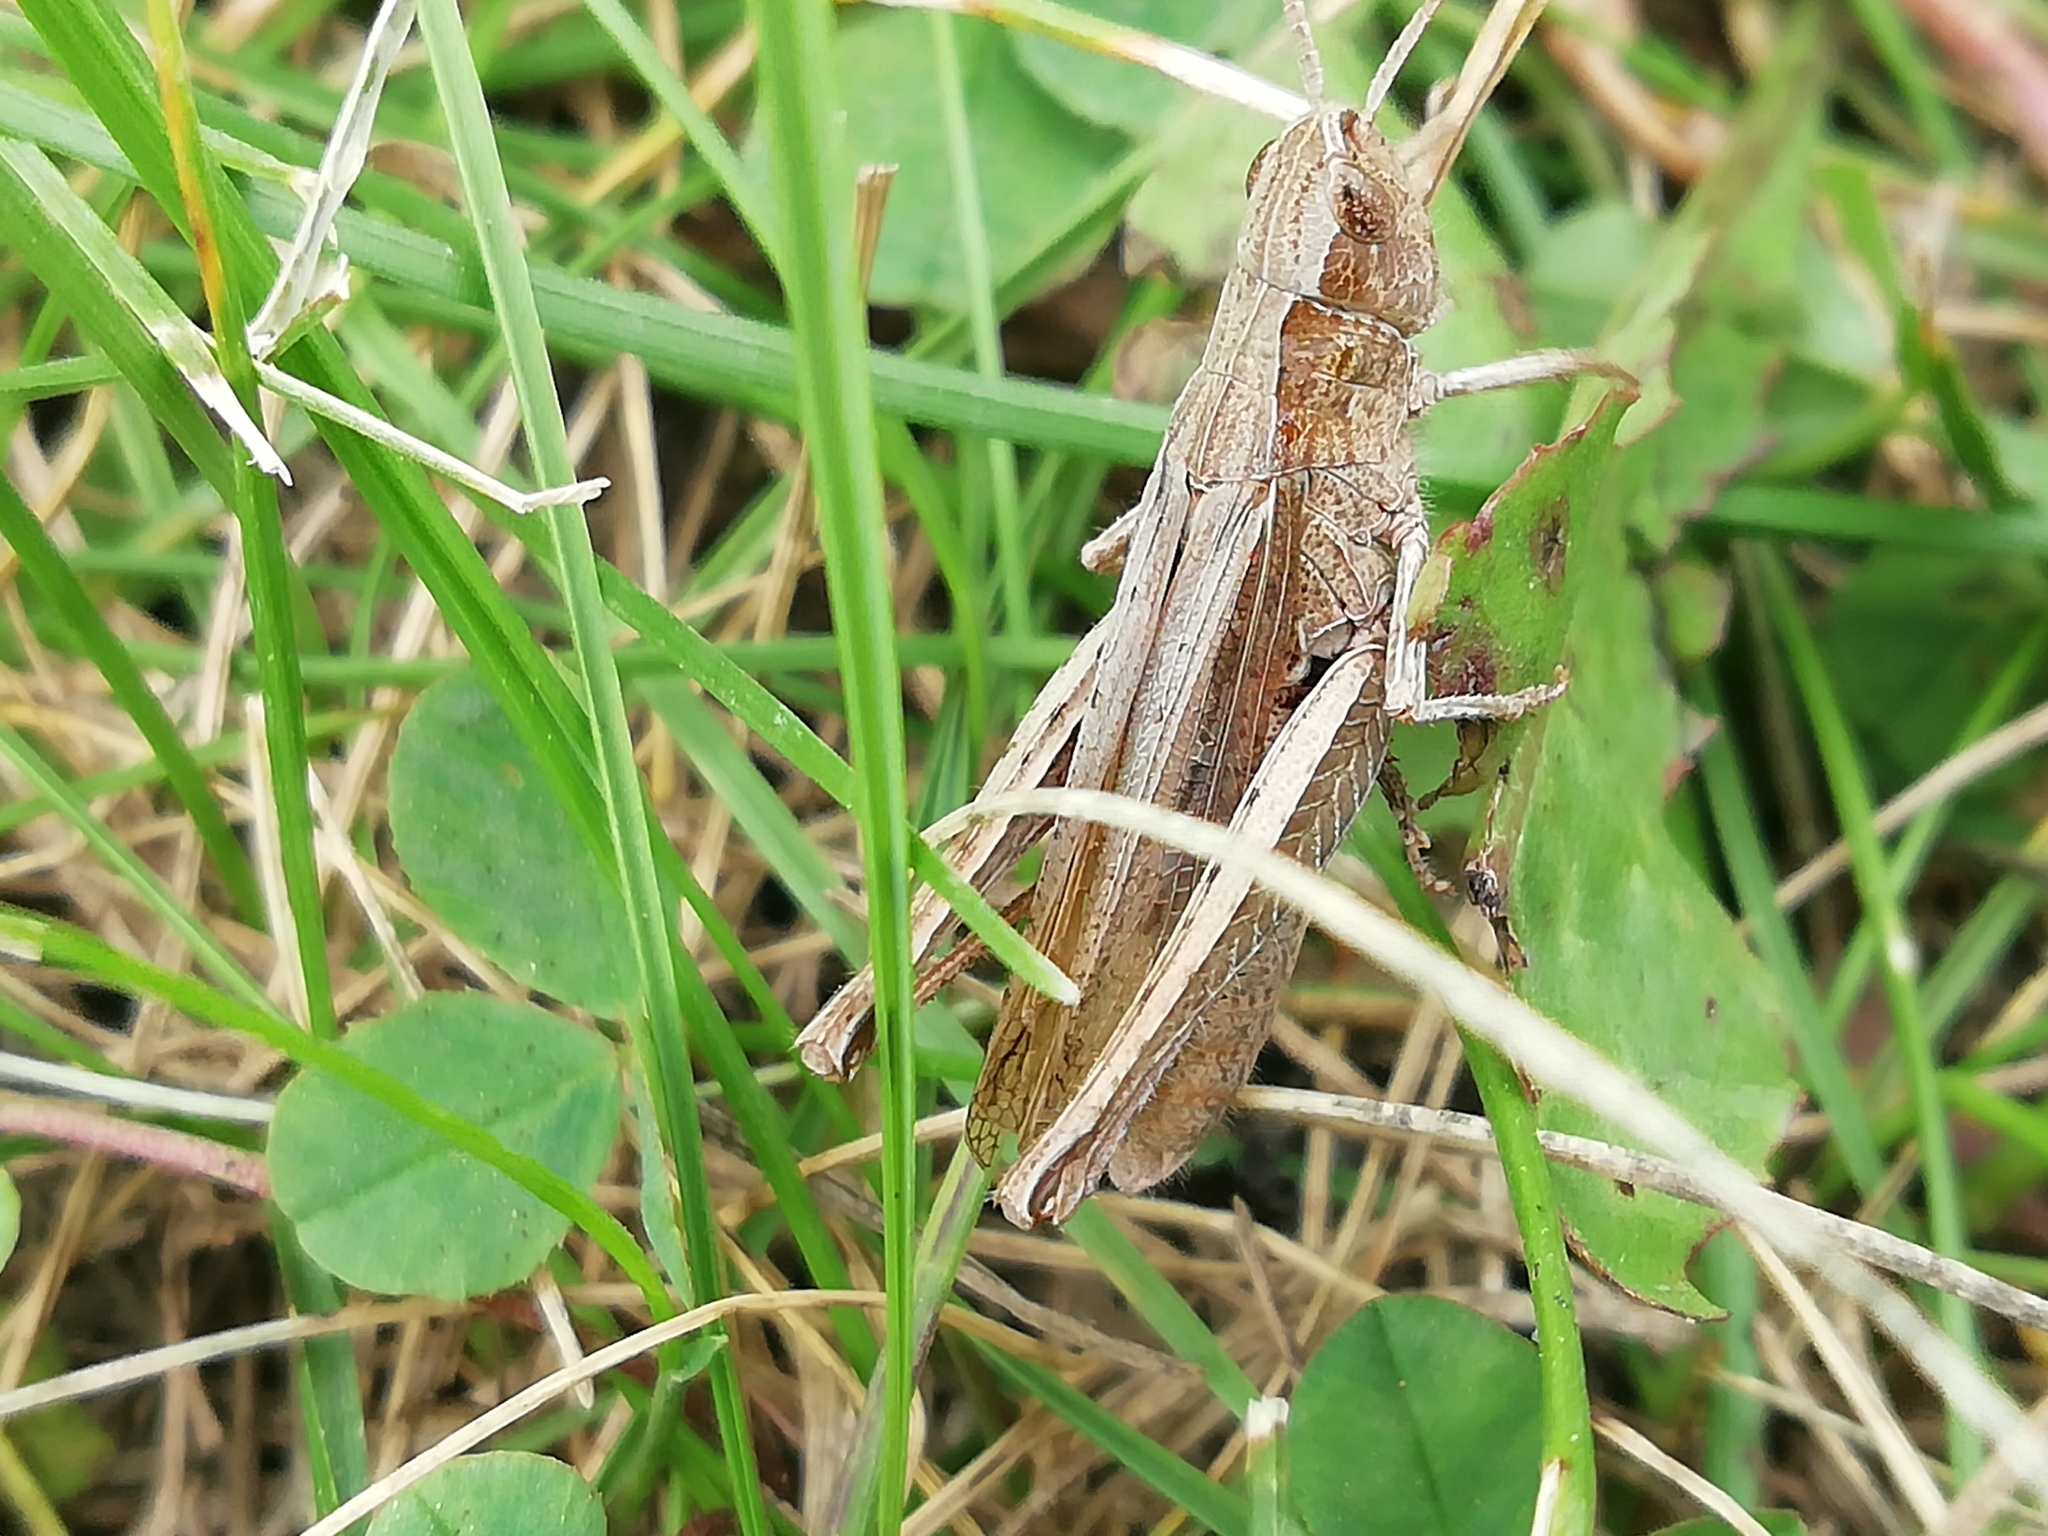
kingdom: Animalia
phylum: Arthropoda
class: Insecta
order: Orthoptera
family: Acrididae
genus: Chorthippus
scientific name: Chorthippus dorsatus
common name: Steppe grasshopper
